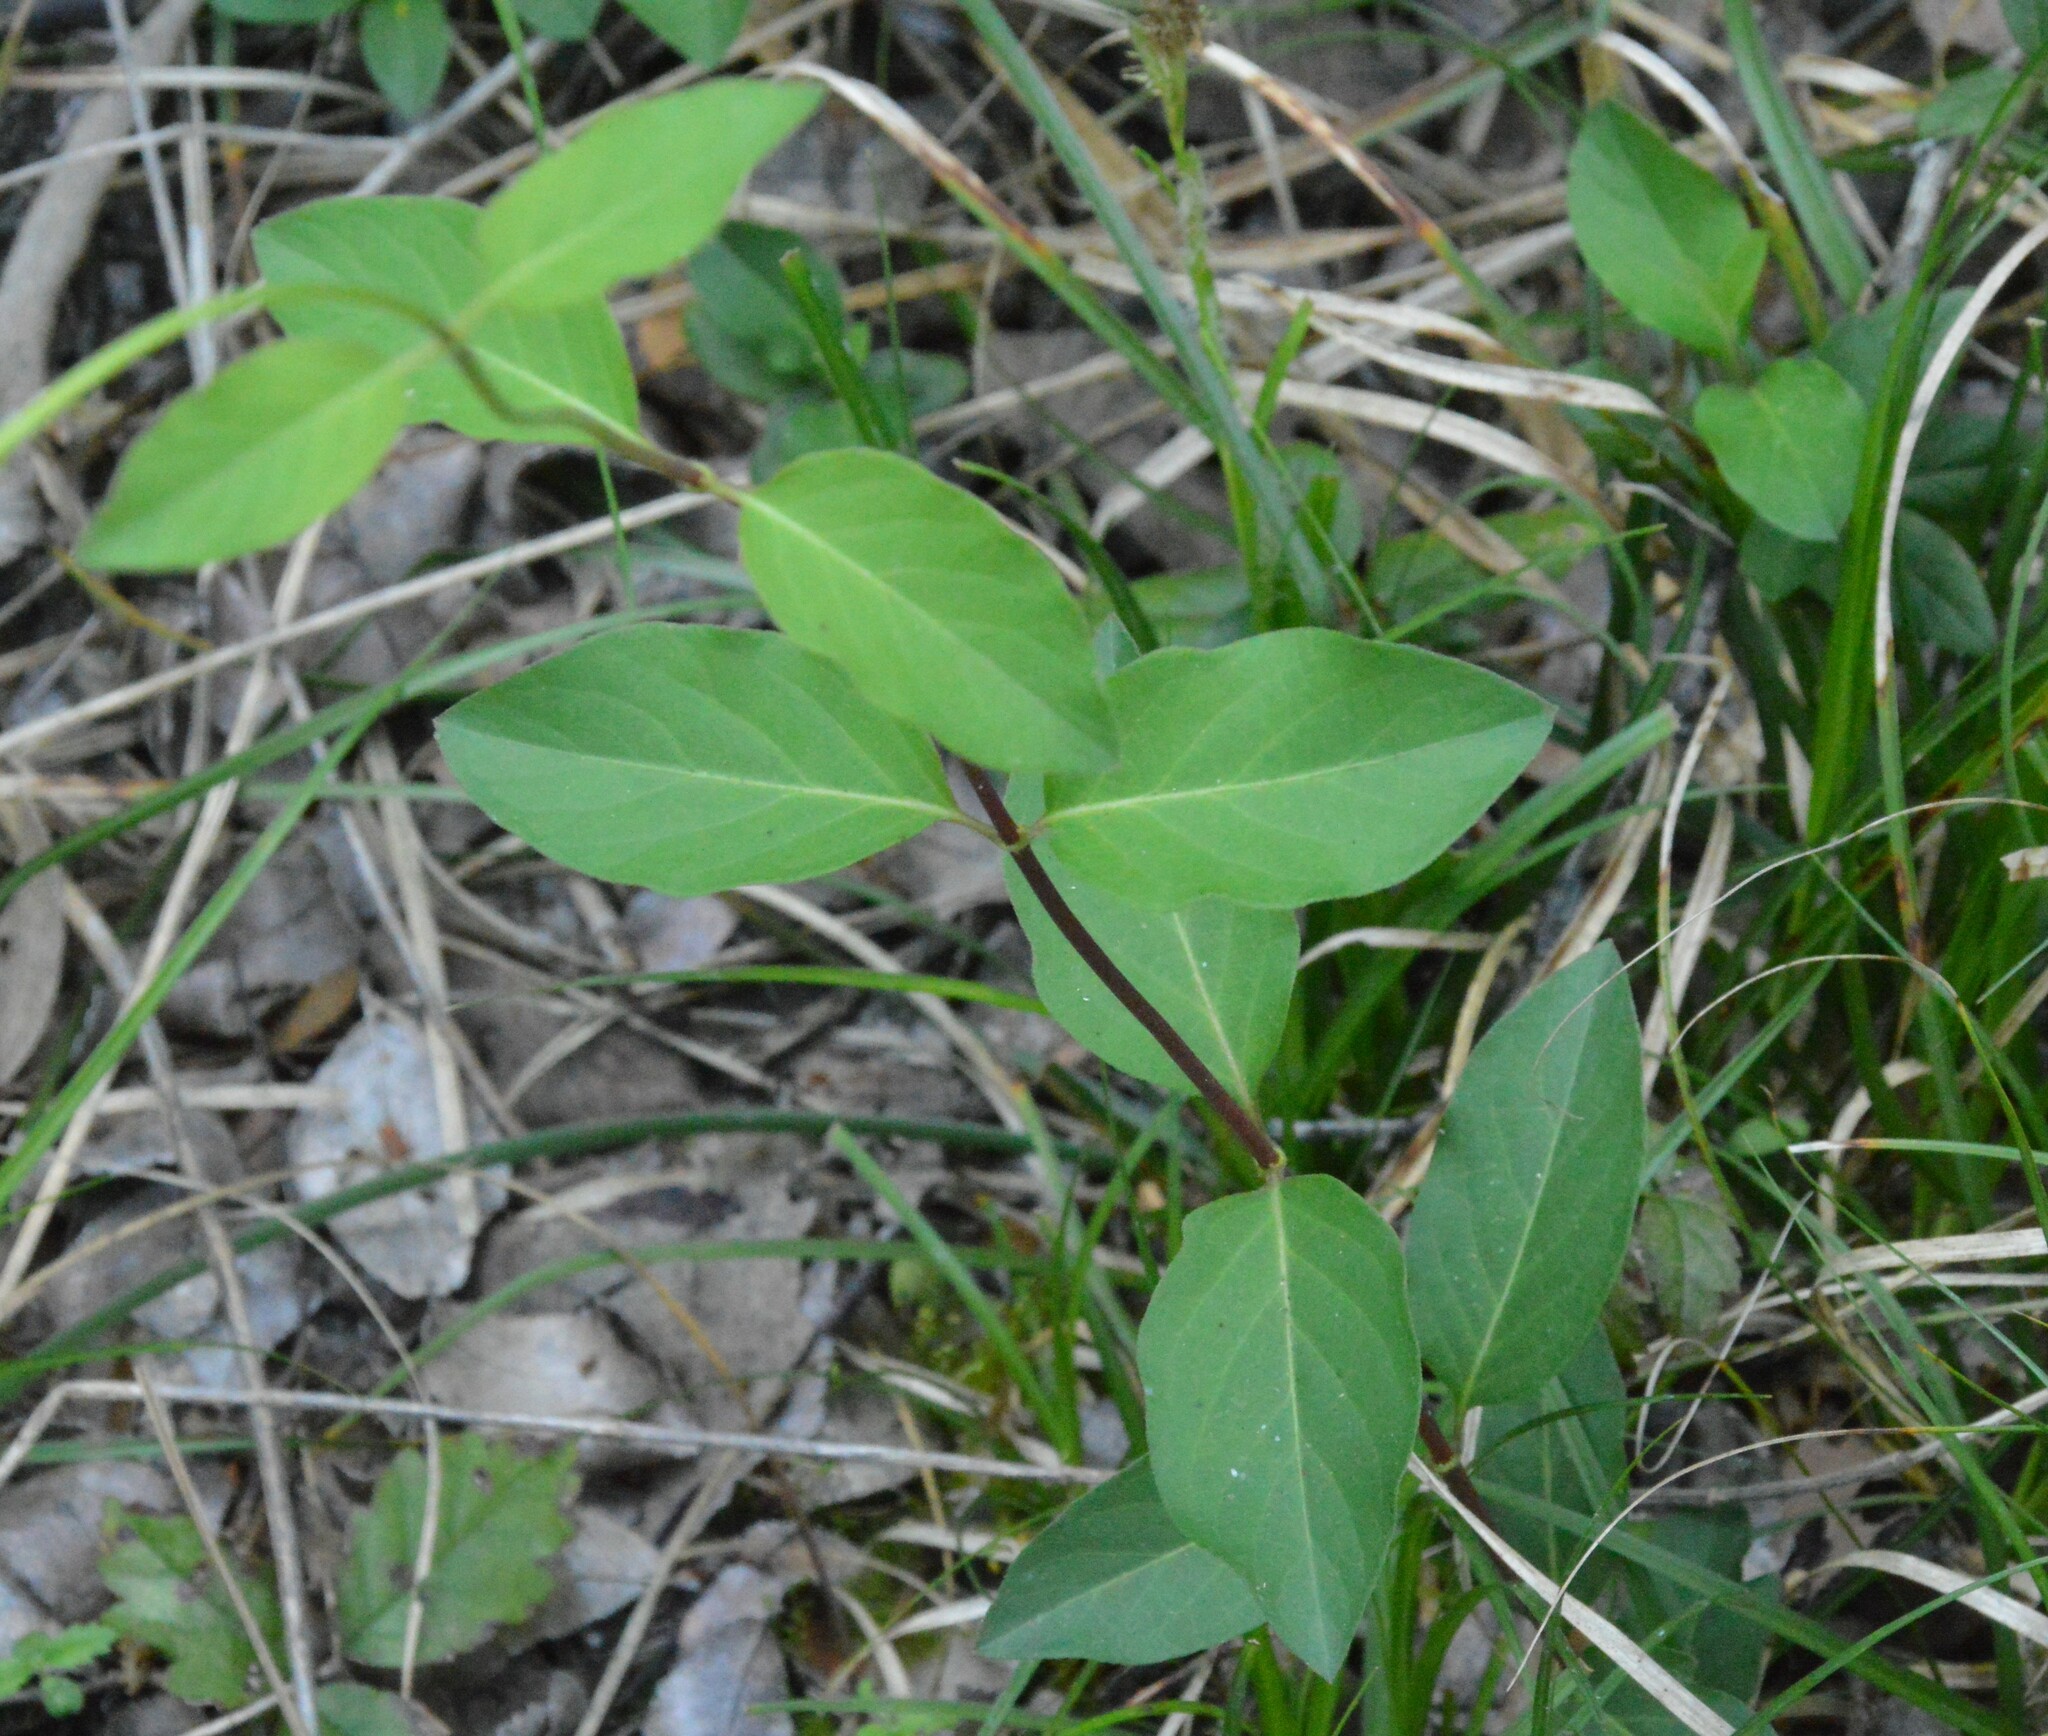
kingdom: Plantae
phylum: Tracheophyta
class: Magnoliopsida
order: Dipsacales
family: Caprifoliaceae
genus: Lonicera
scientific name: Lonicera japonica
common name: Japanese honeysuckle
